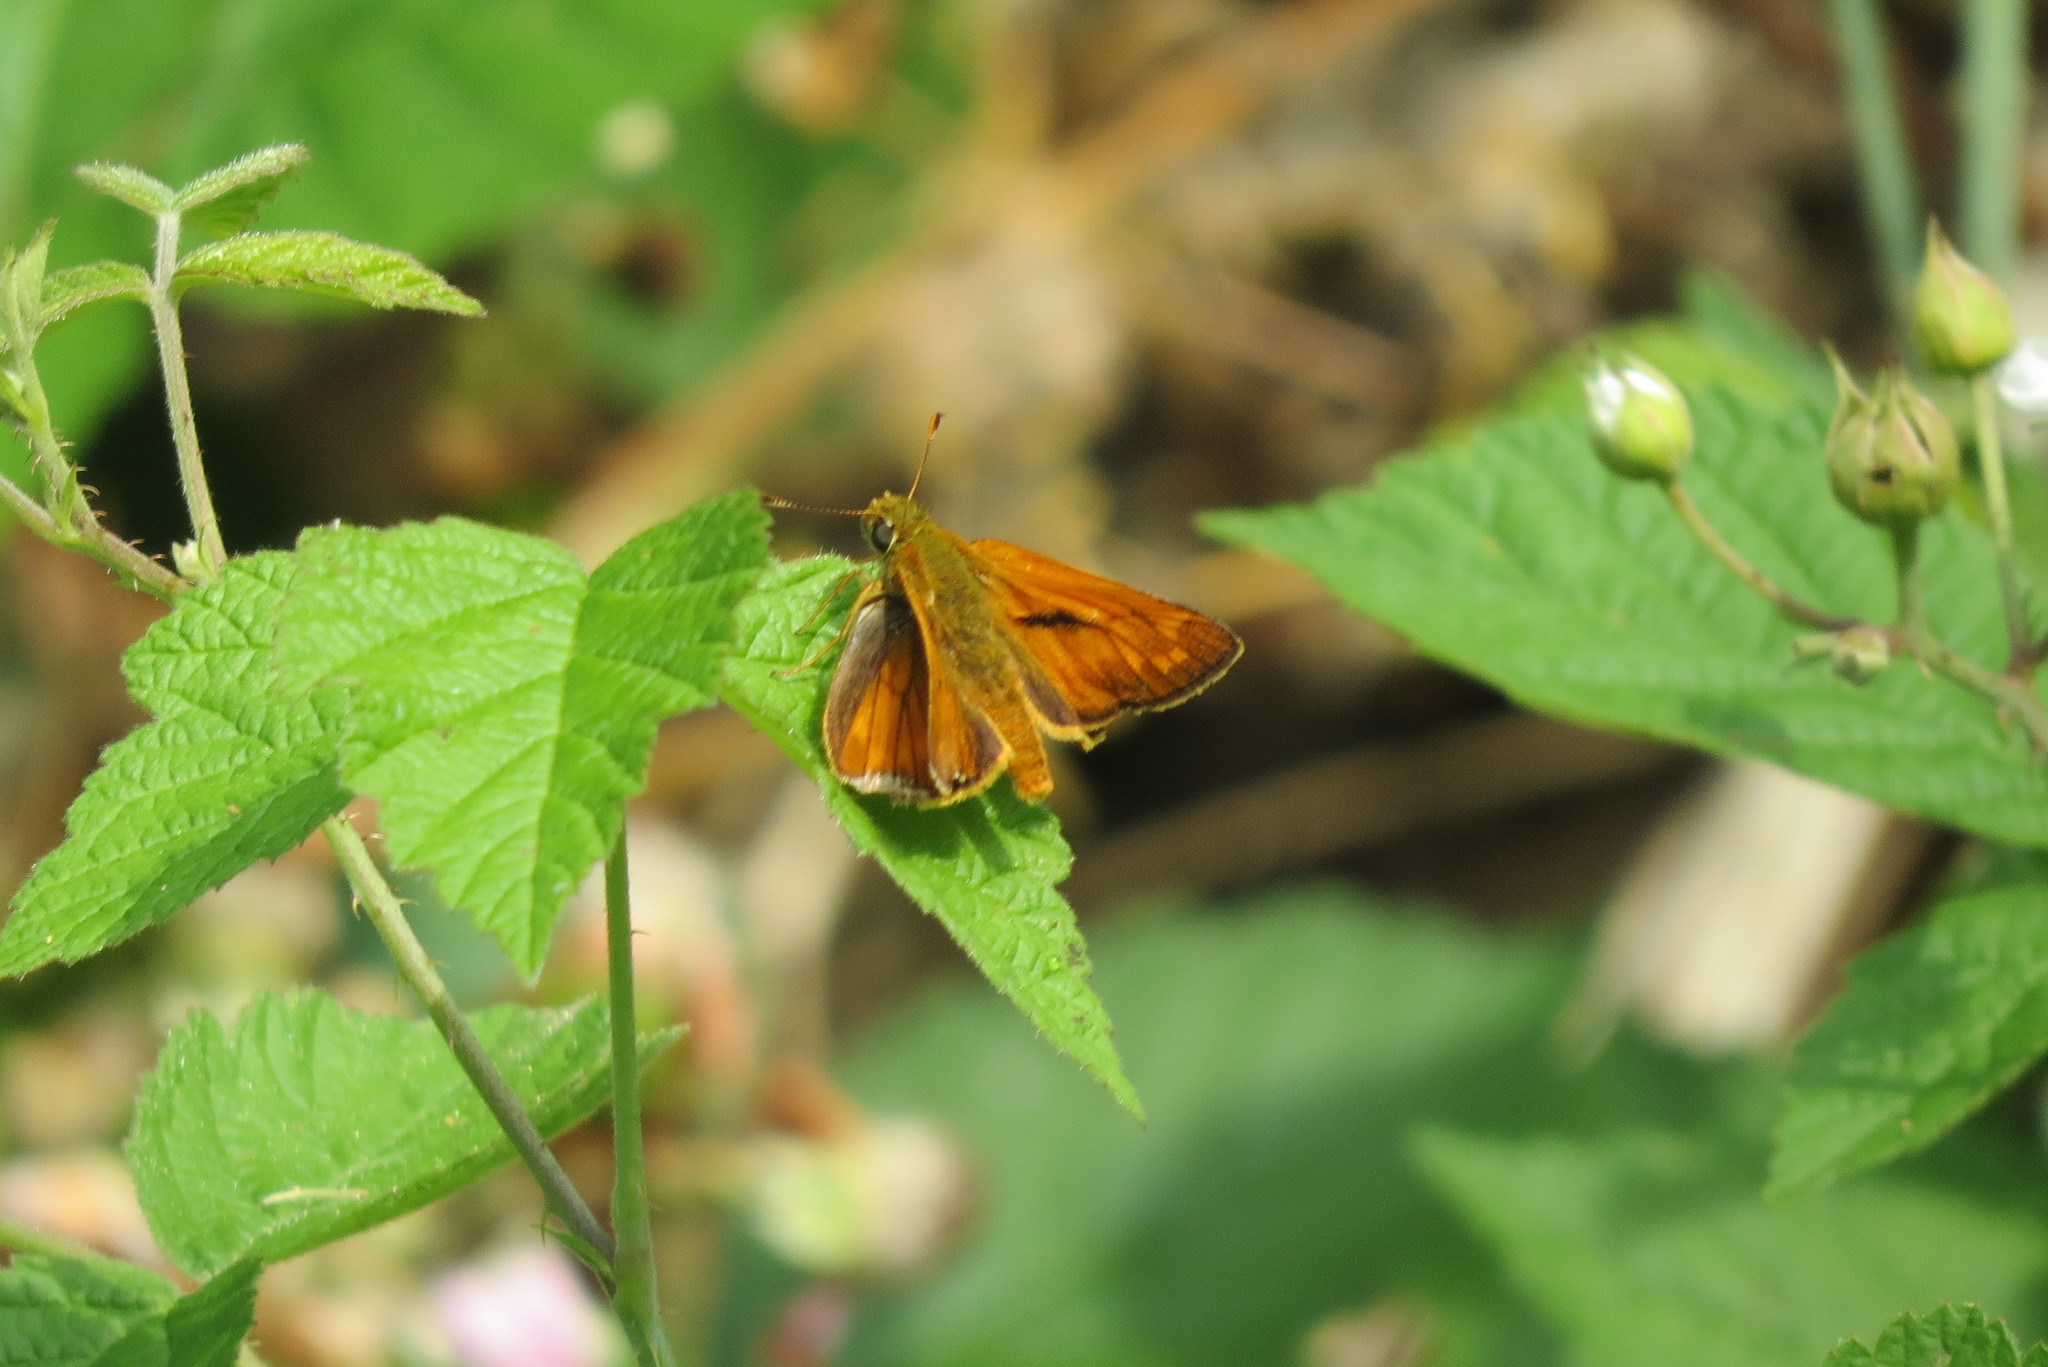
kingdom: Animalia
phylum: Arthropoda
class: Insecta
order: Lepidoptera
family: Hesperiidae
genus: Ochlodes
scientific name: Ochlodes venata
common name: Large skipper
